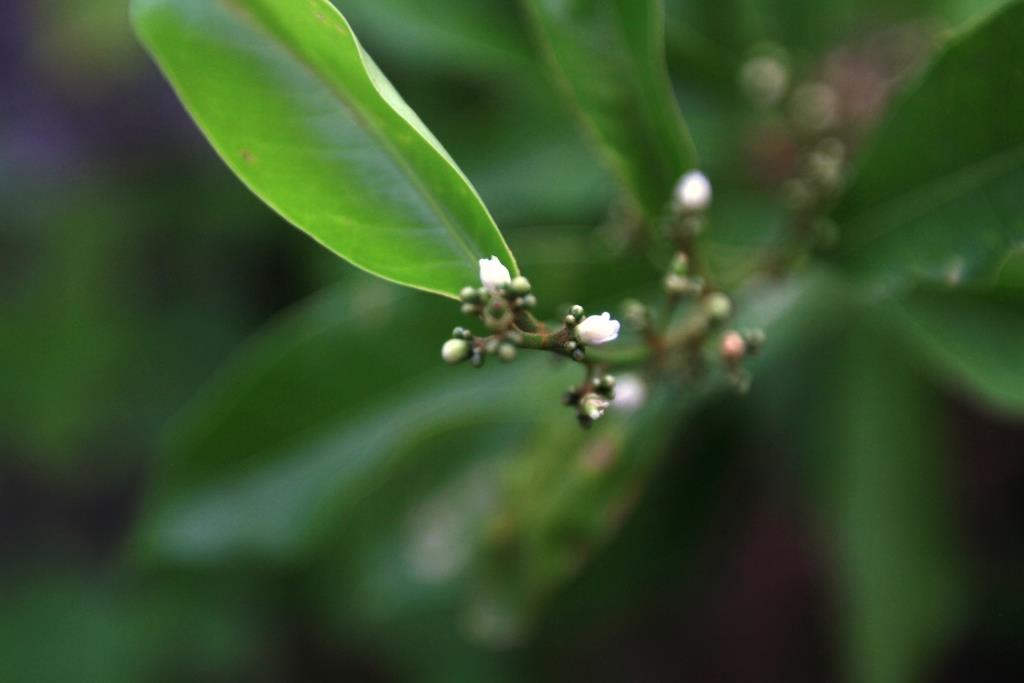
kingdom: Plantae
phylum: Tracheophyta
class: Magnoliopsida
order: Sapindales
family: Rutaceae
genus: Glycosmis
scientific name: Glycosmis parviflora
